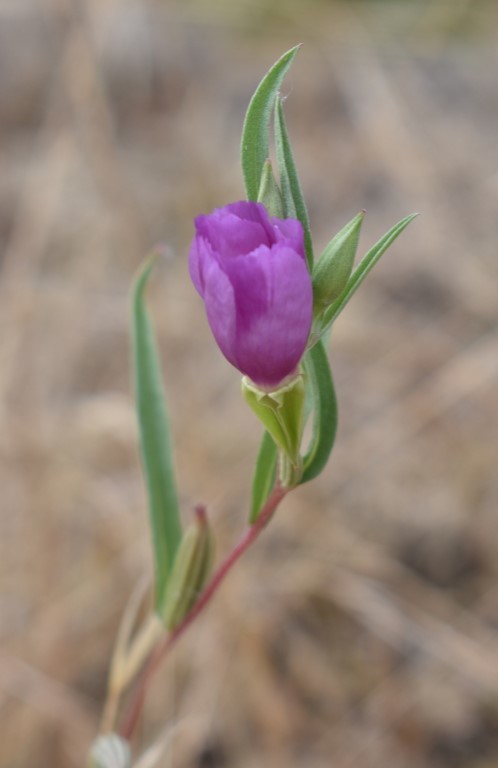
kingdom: Plantae
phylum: Tracheophyta
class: Magnoliopsida
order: Myrtales
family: Onagraceae
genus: Clarkia
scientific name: Clarkia purpurea
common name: Purple clarkia
